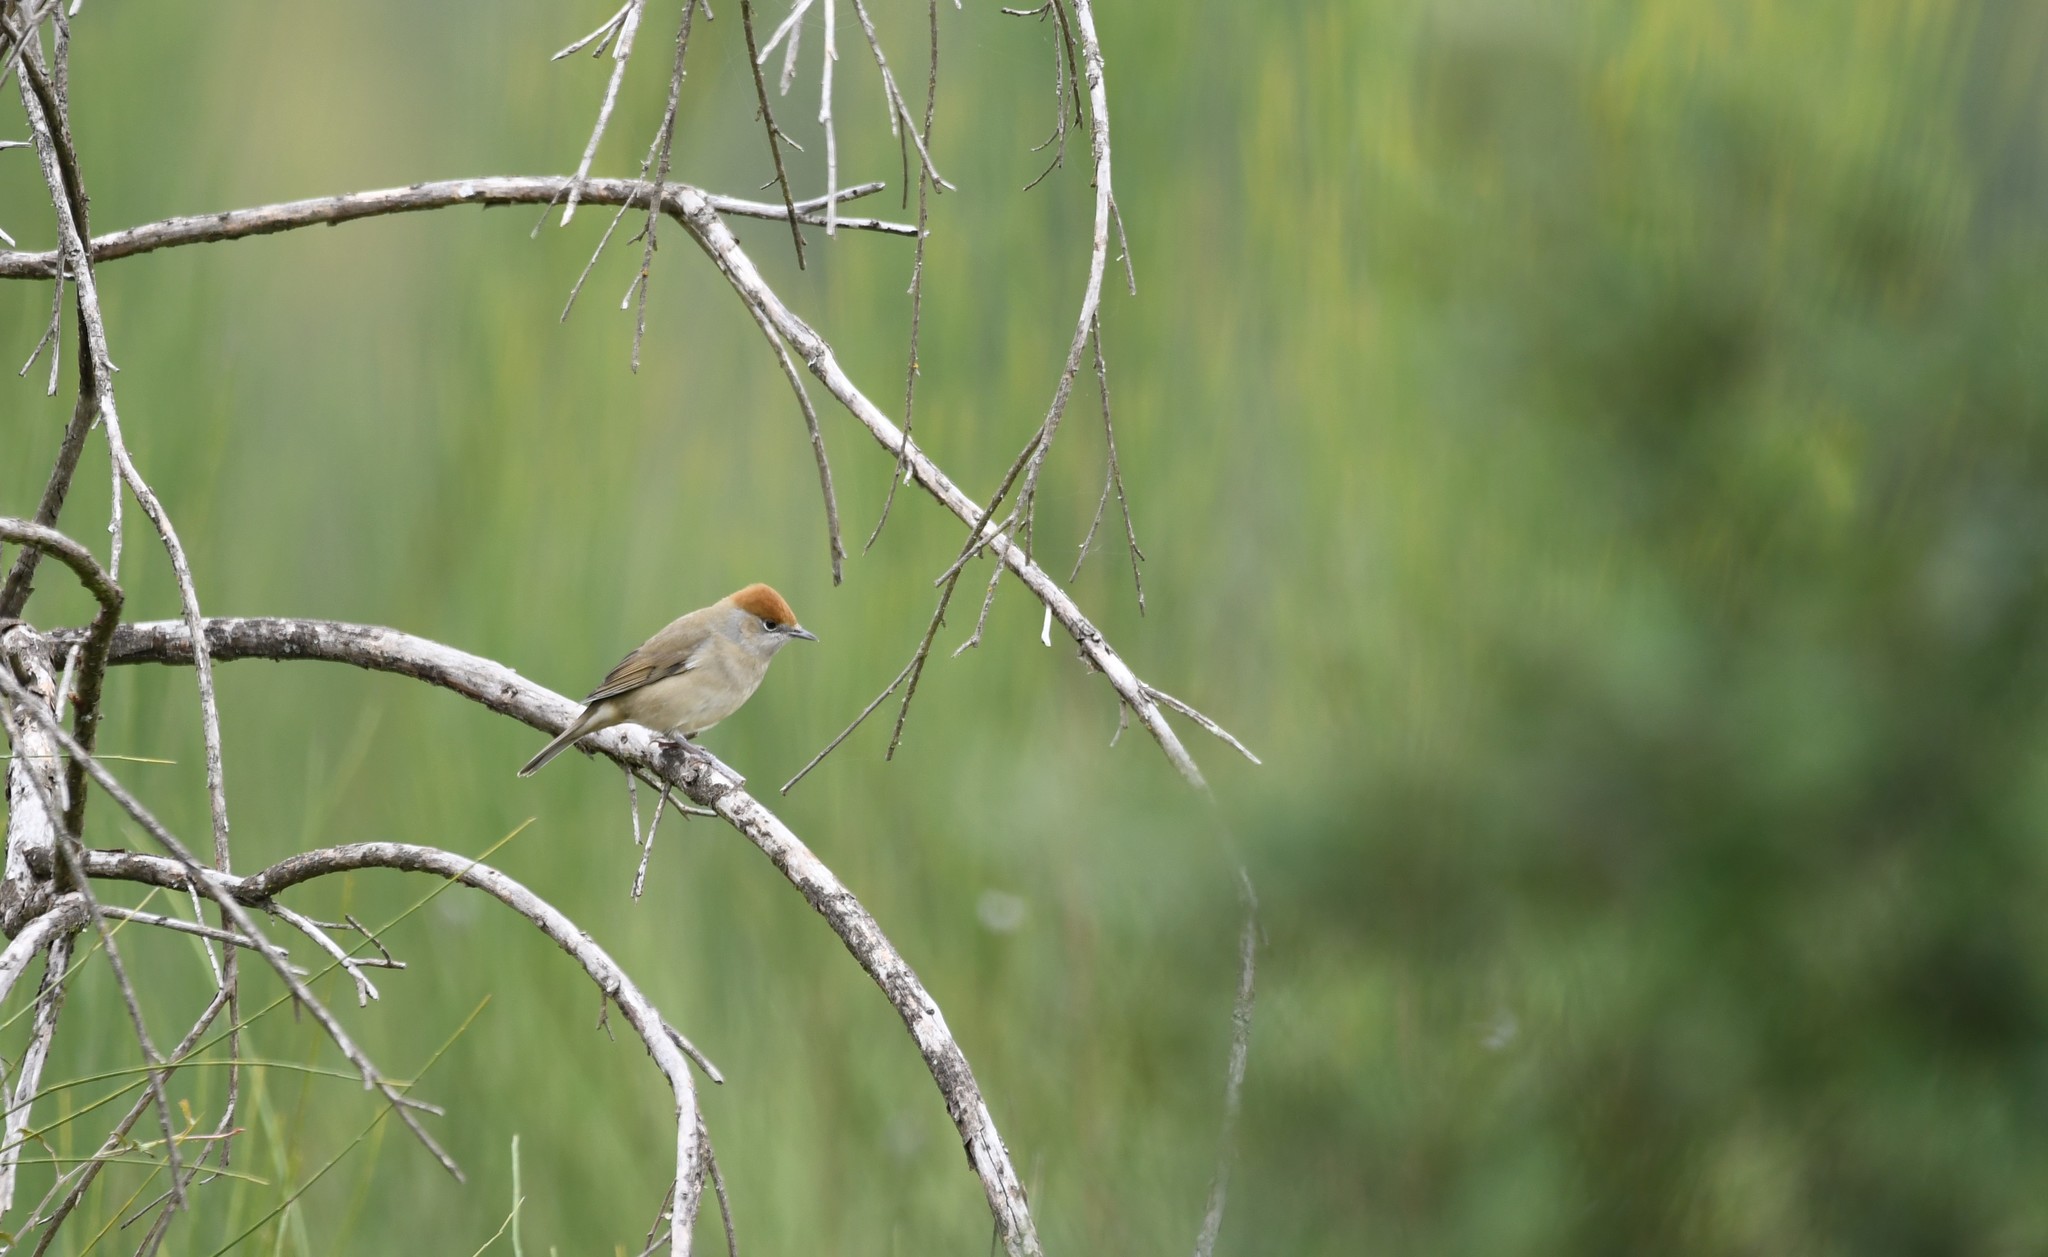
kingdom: Animalia
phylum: Chordata
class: Aves
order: Passeriformes
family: Sylviidae
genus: Sylvia
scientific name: Sylvia atricapilla
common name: Eurasian blackcap
